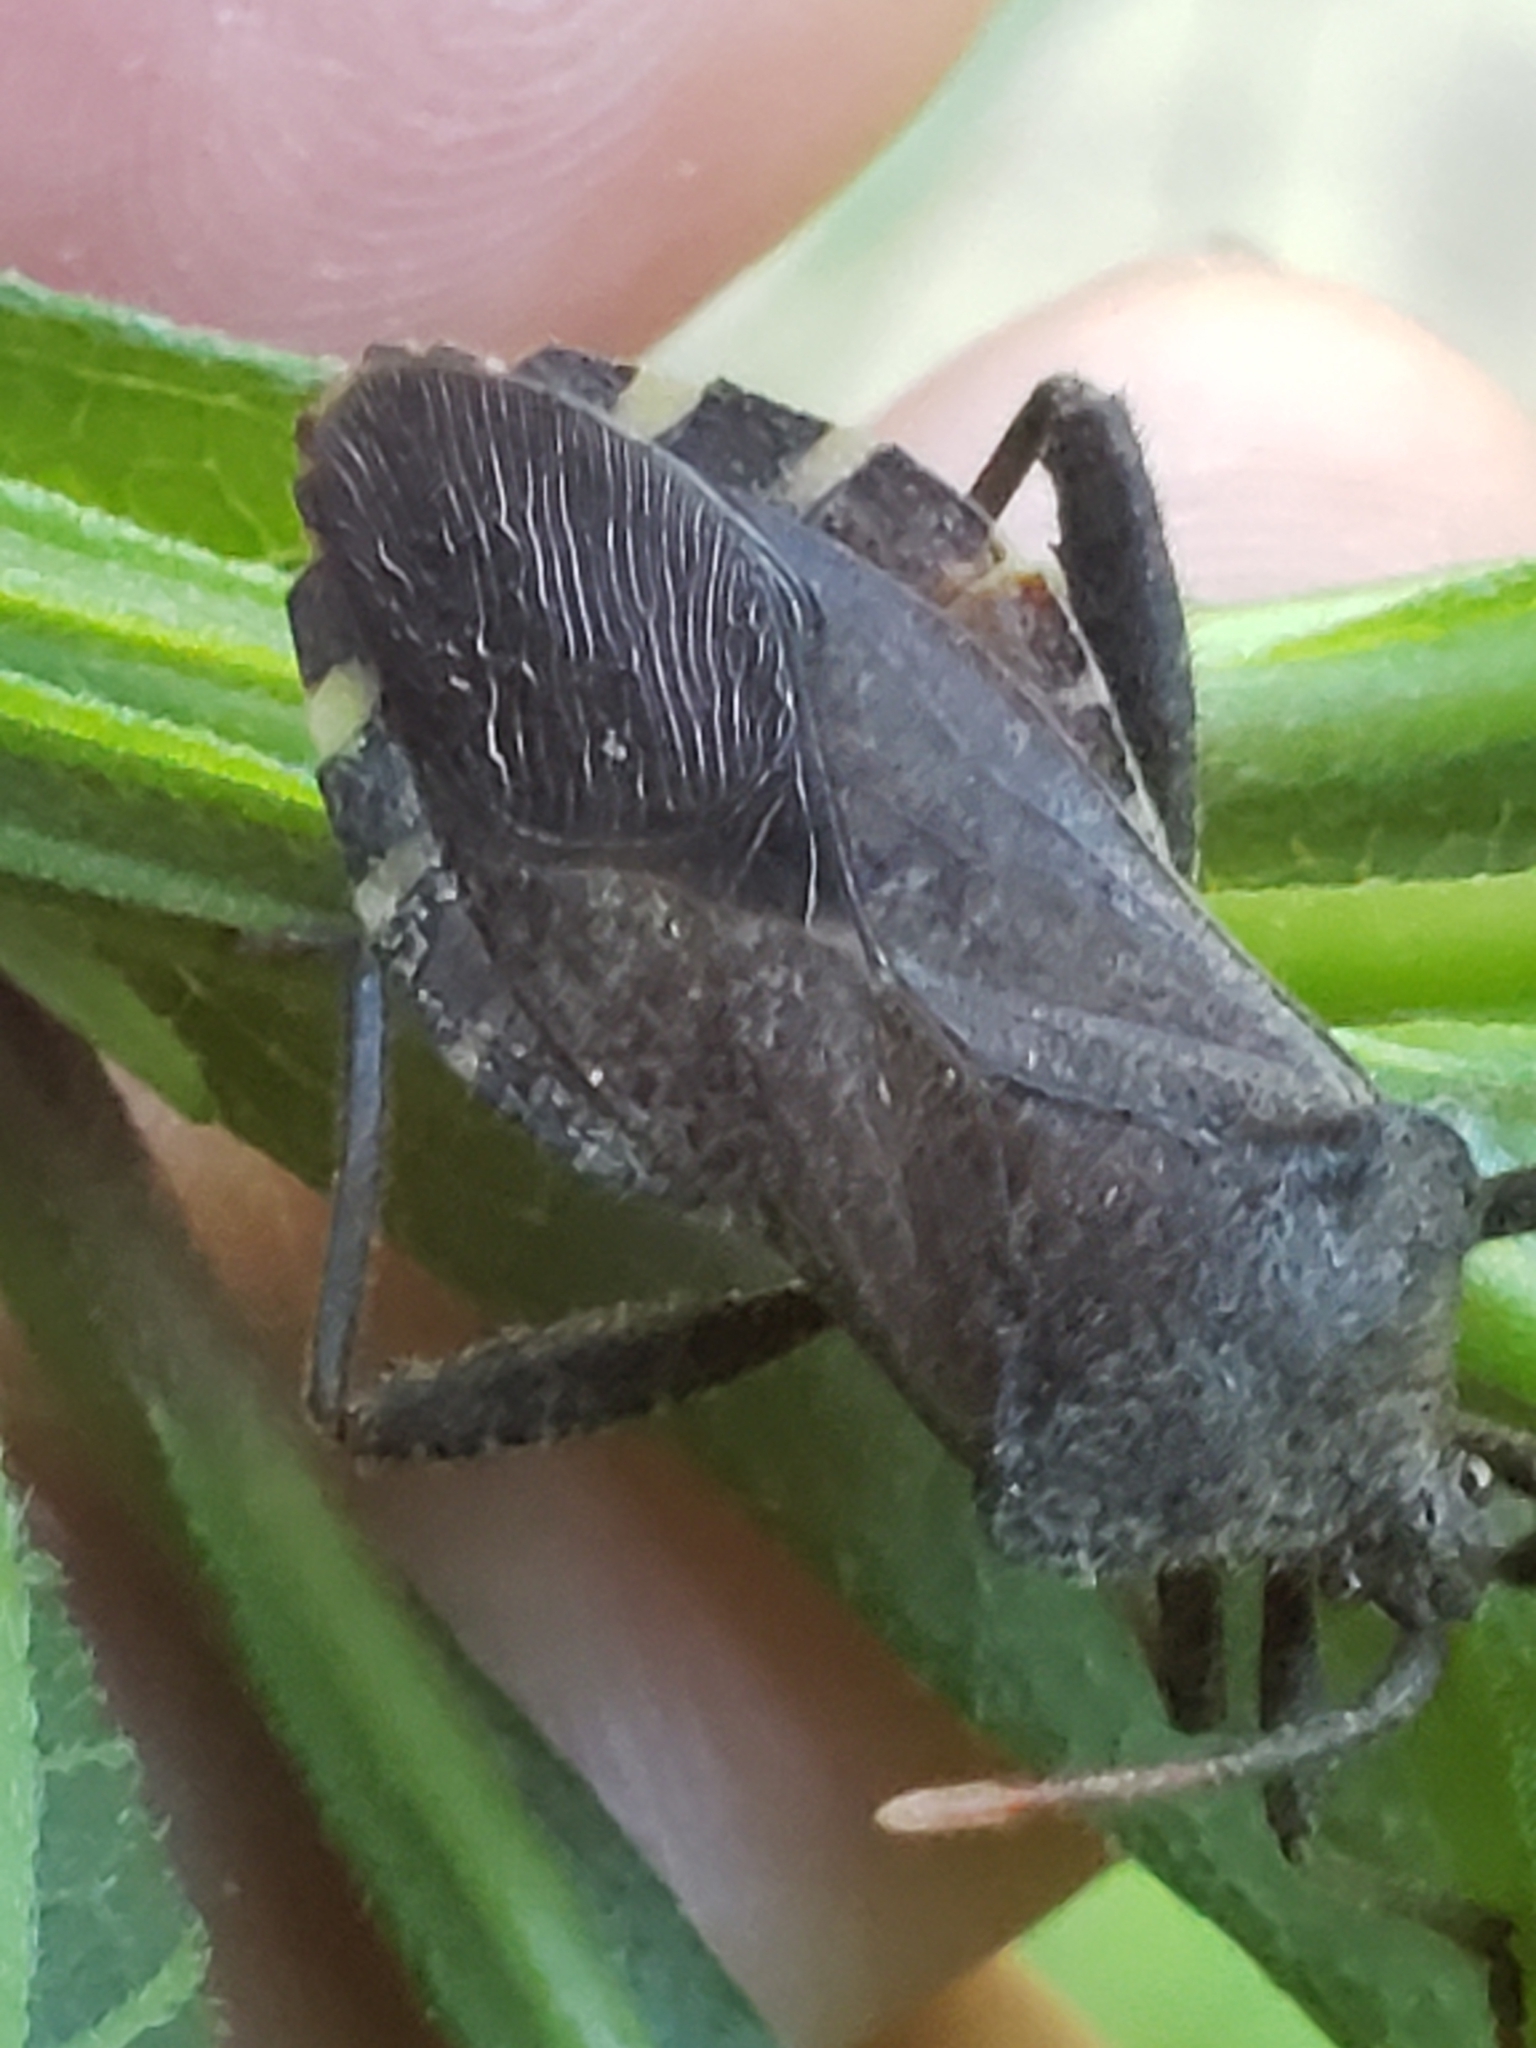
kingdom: Animalia
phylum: Arthropoda
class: Insecta
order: Hemiptera
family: Coreidae
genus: Piezogaster
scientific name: Piezogaster calcarator
